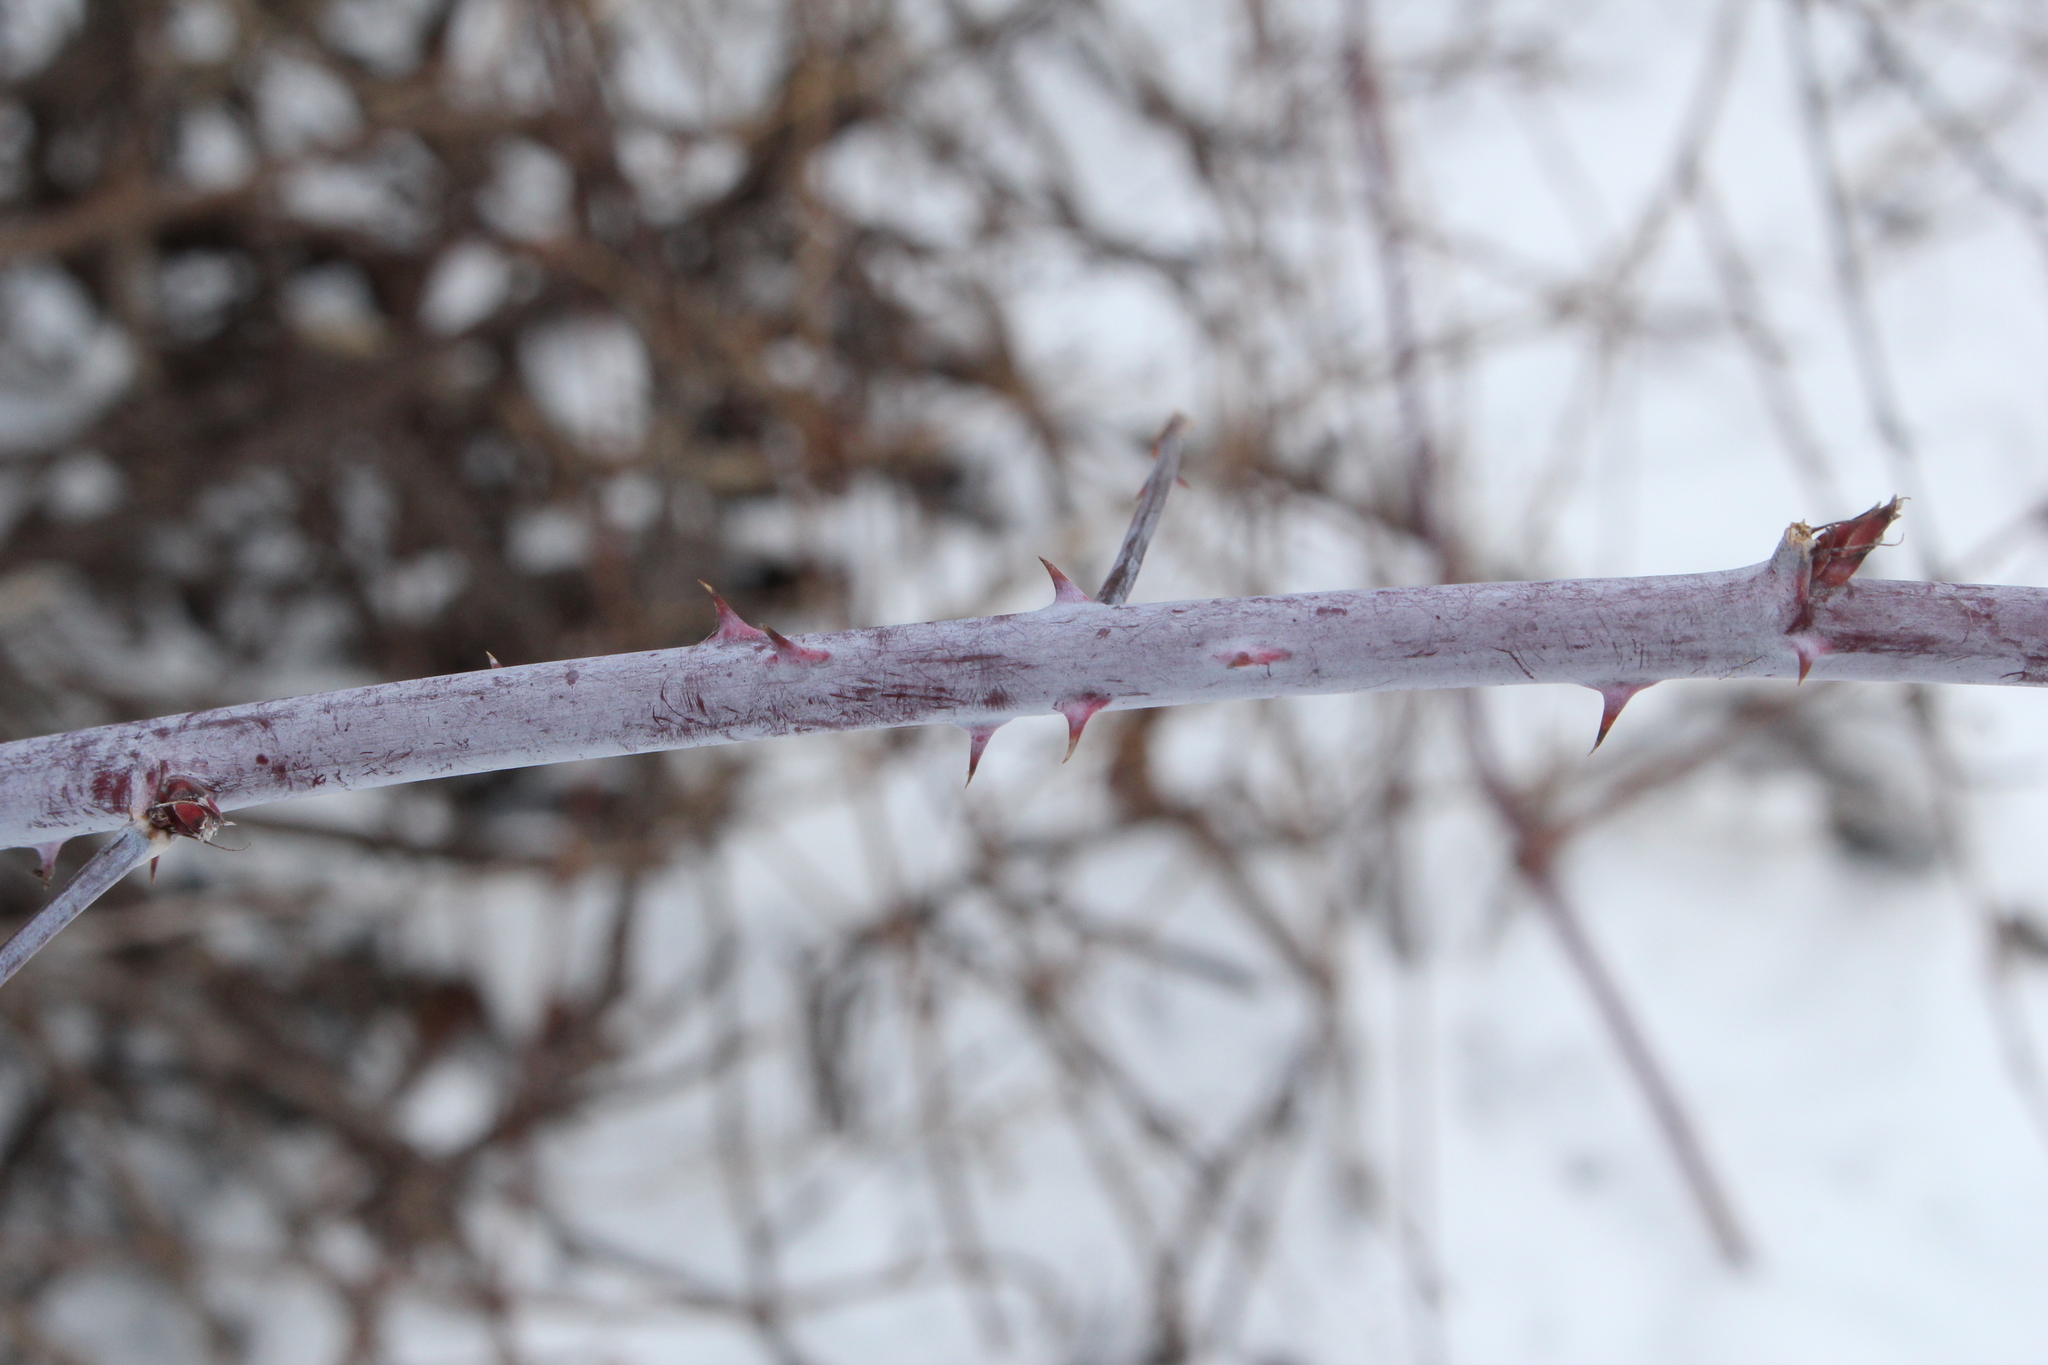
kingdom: Plantae
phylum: Tracheophyta
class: Magnoliopsida
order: Rosales
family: Rosaceae
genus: Rubus
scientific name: Rubus occidentalis
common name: Black raspberry
